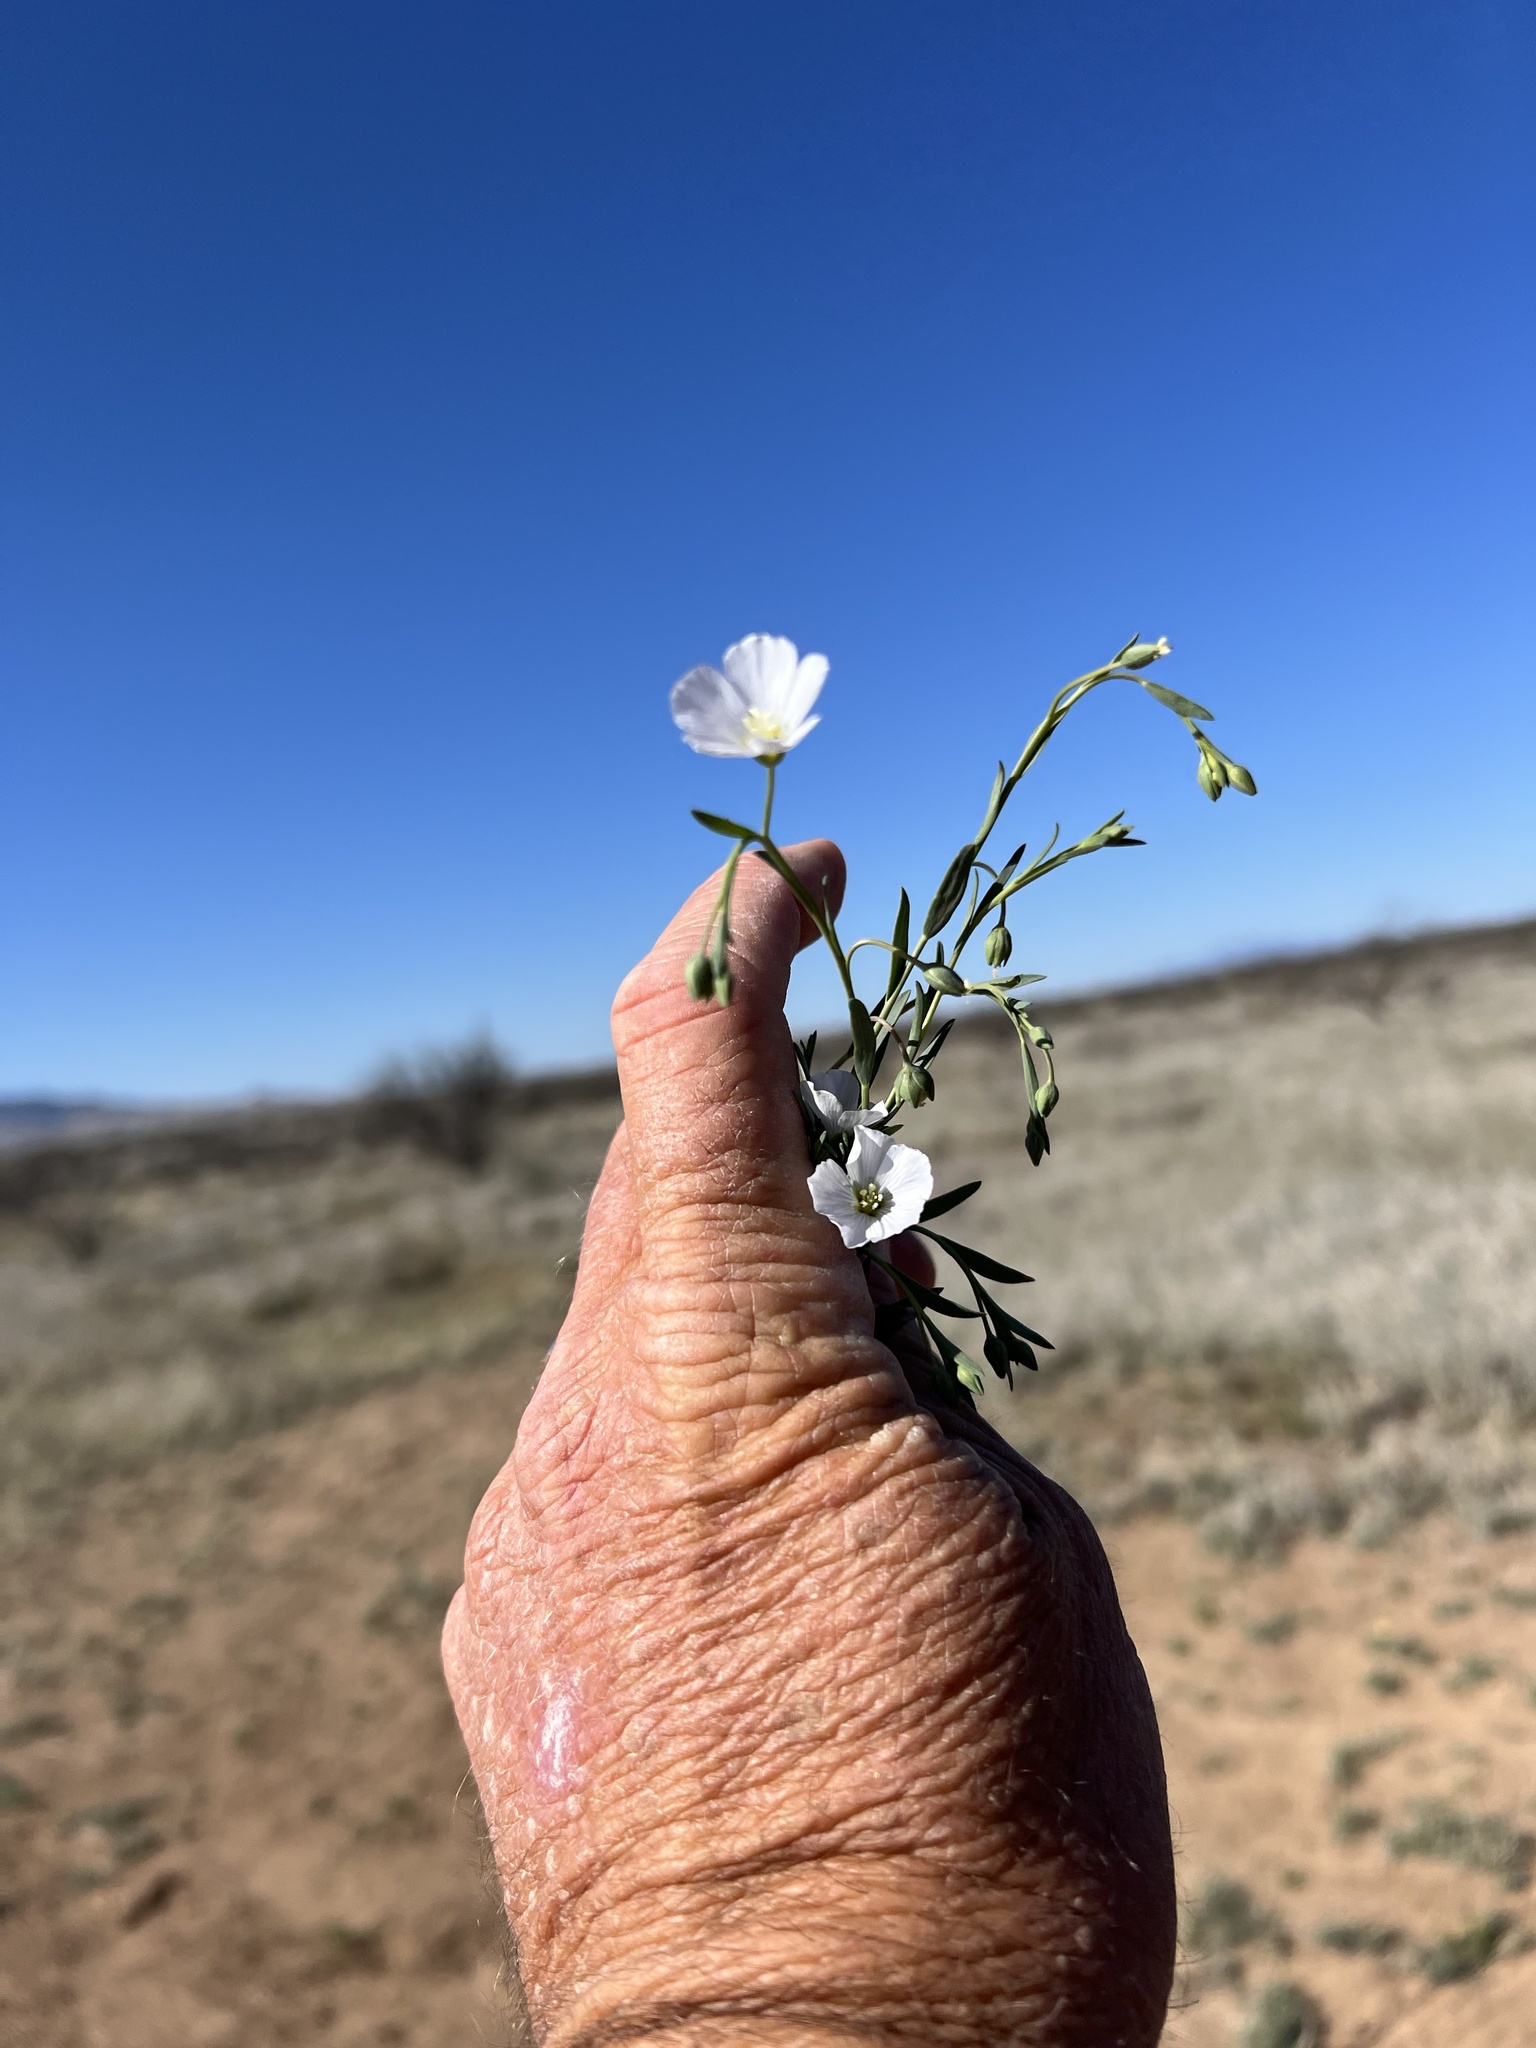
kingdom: Plantae
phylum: Tracheophyta
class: Magnoliopsida
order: Malpighiales
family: Linaceae
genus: Linum
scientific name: Linum pratense
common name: Norton's flax
